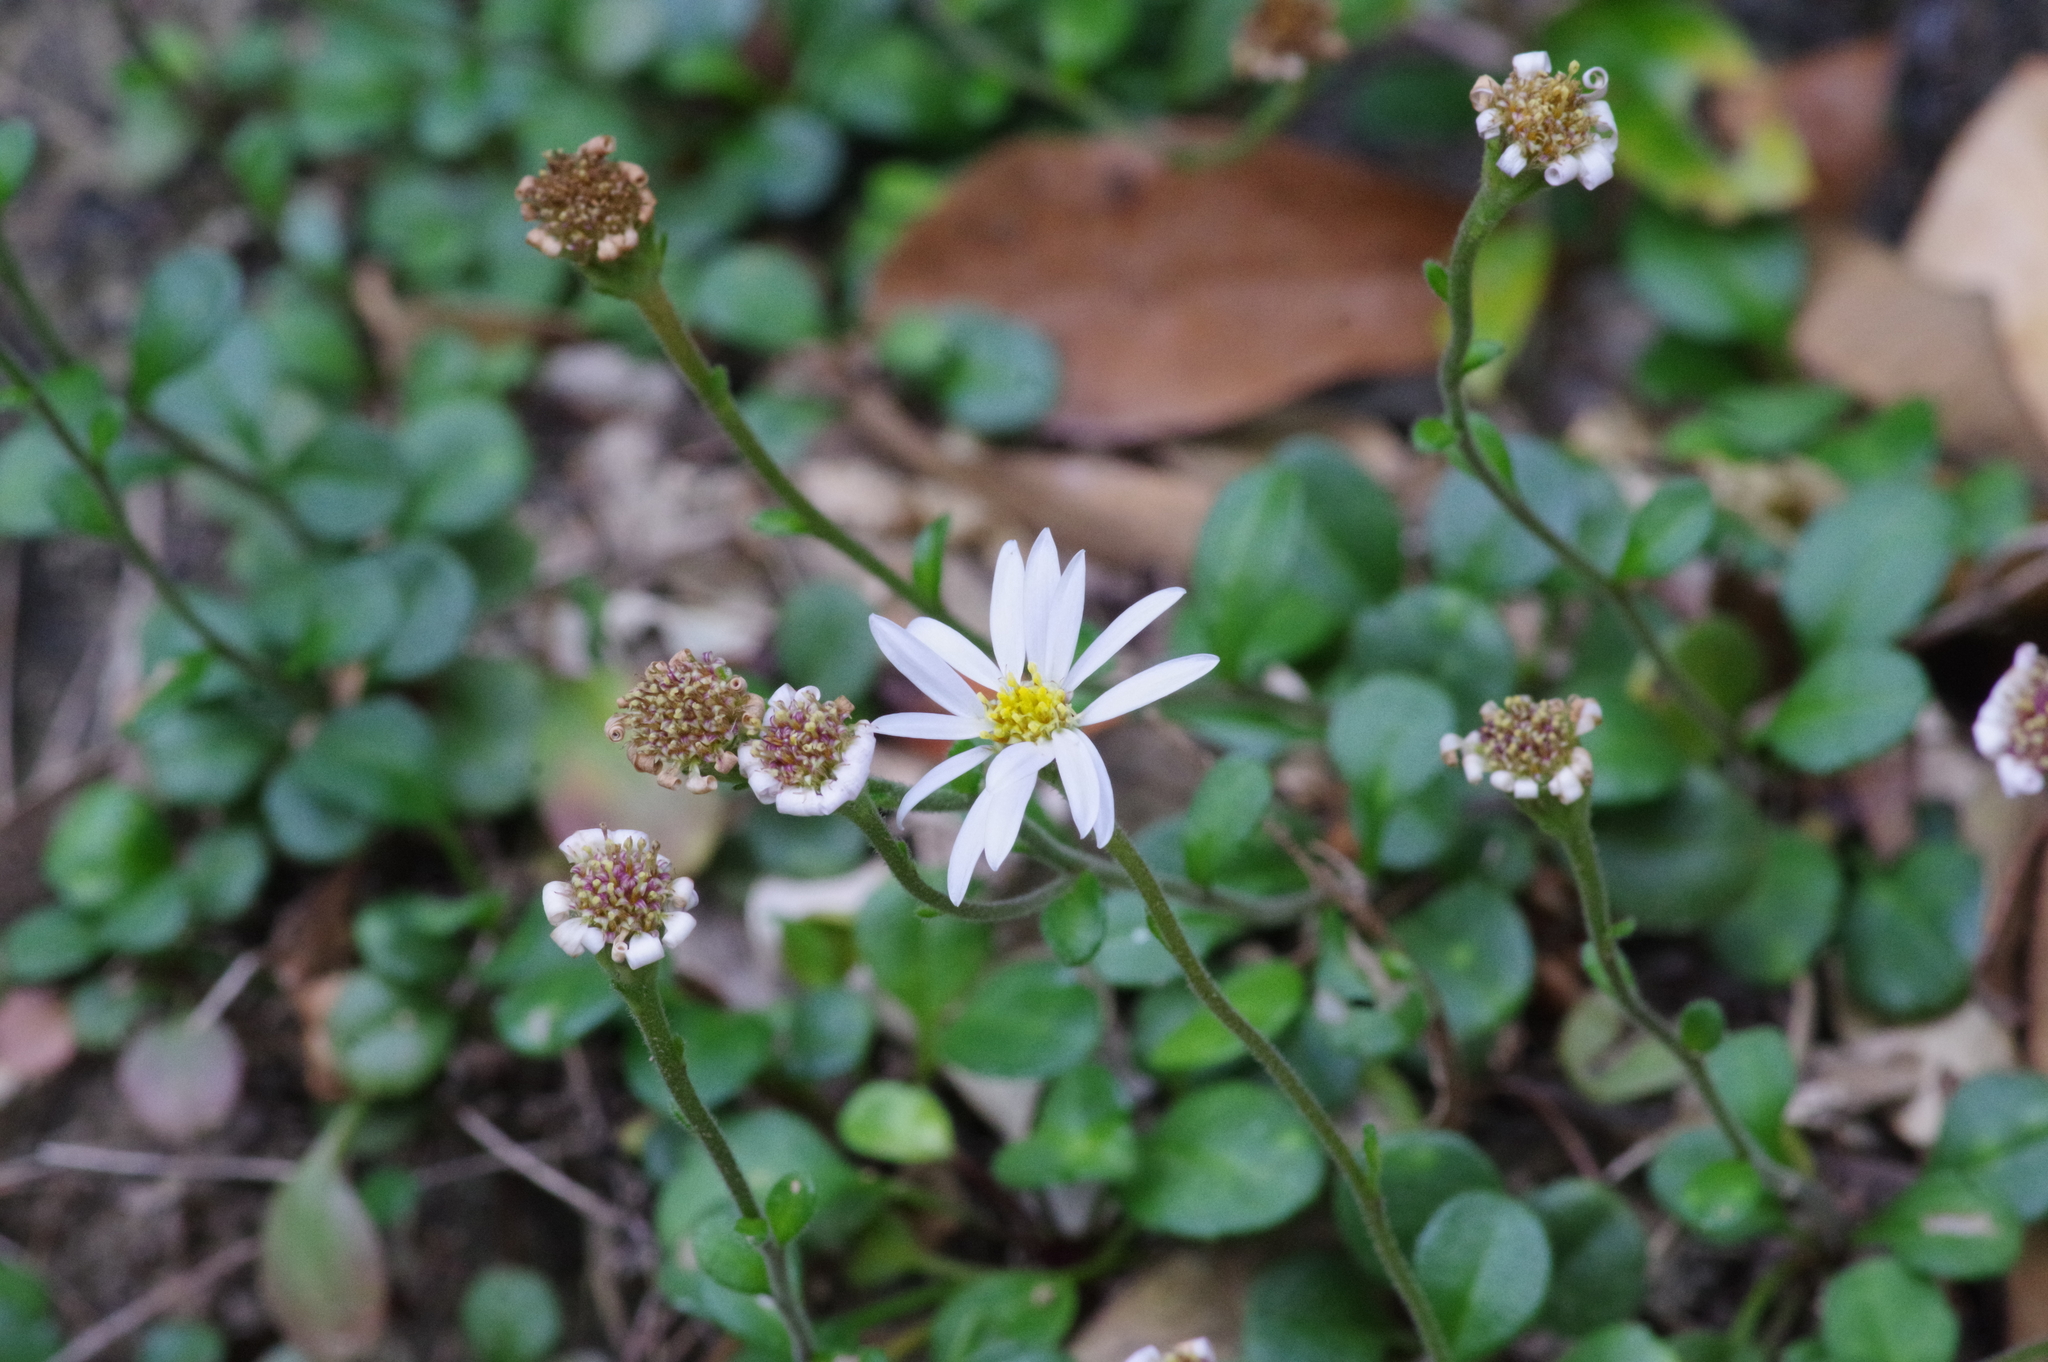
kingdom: Plantae
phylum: Tracheophyta
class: Magnoliopsida
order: Asterales
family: Asteraceae
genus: Aster
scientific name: Aster miyagii
